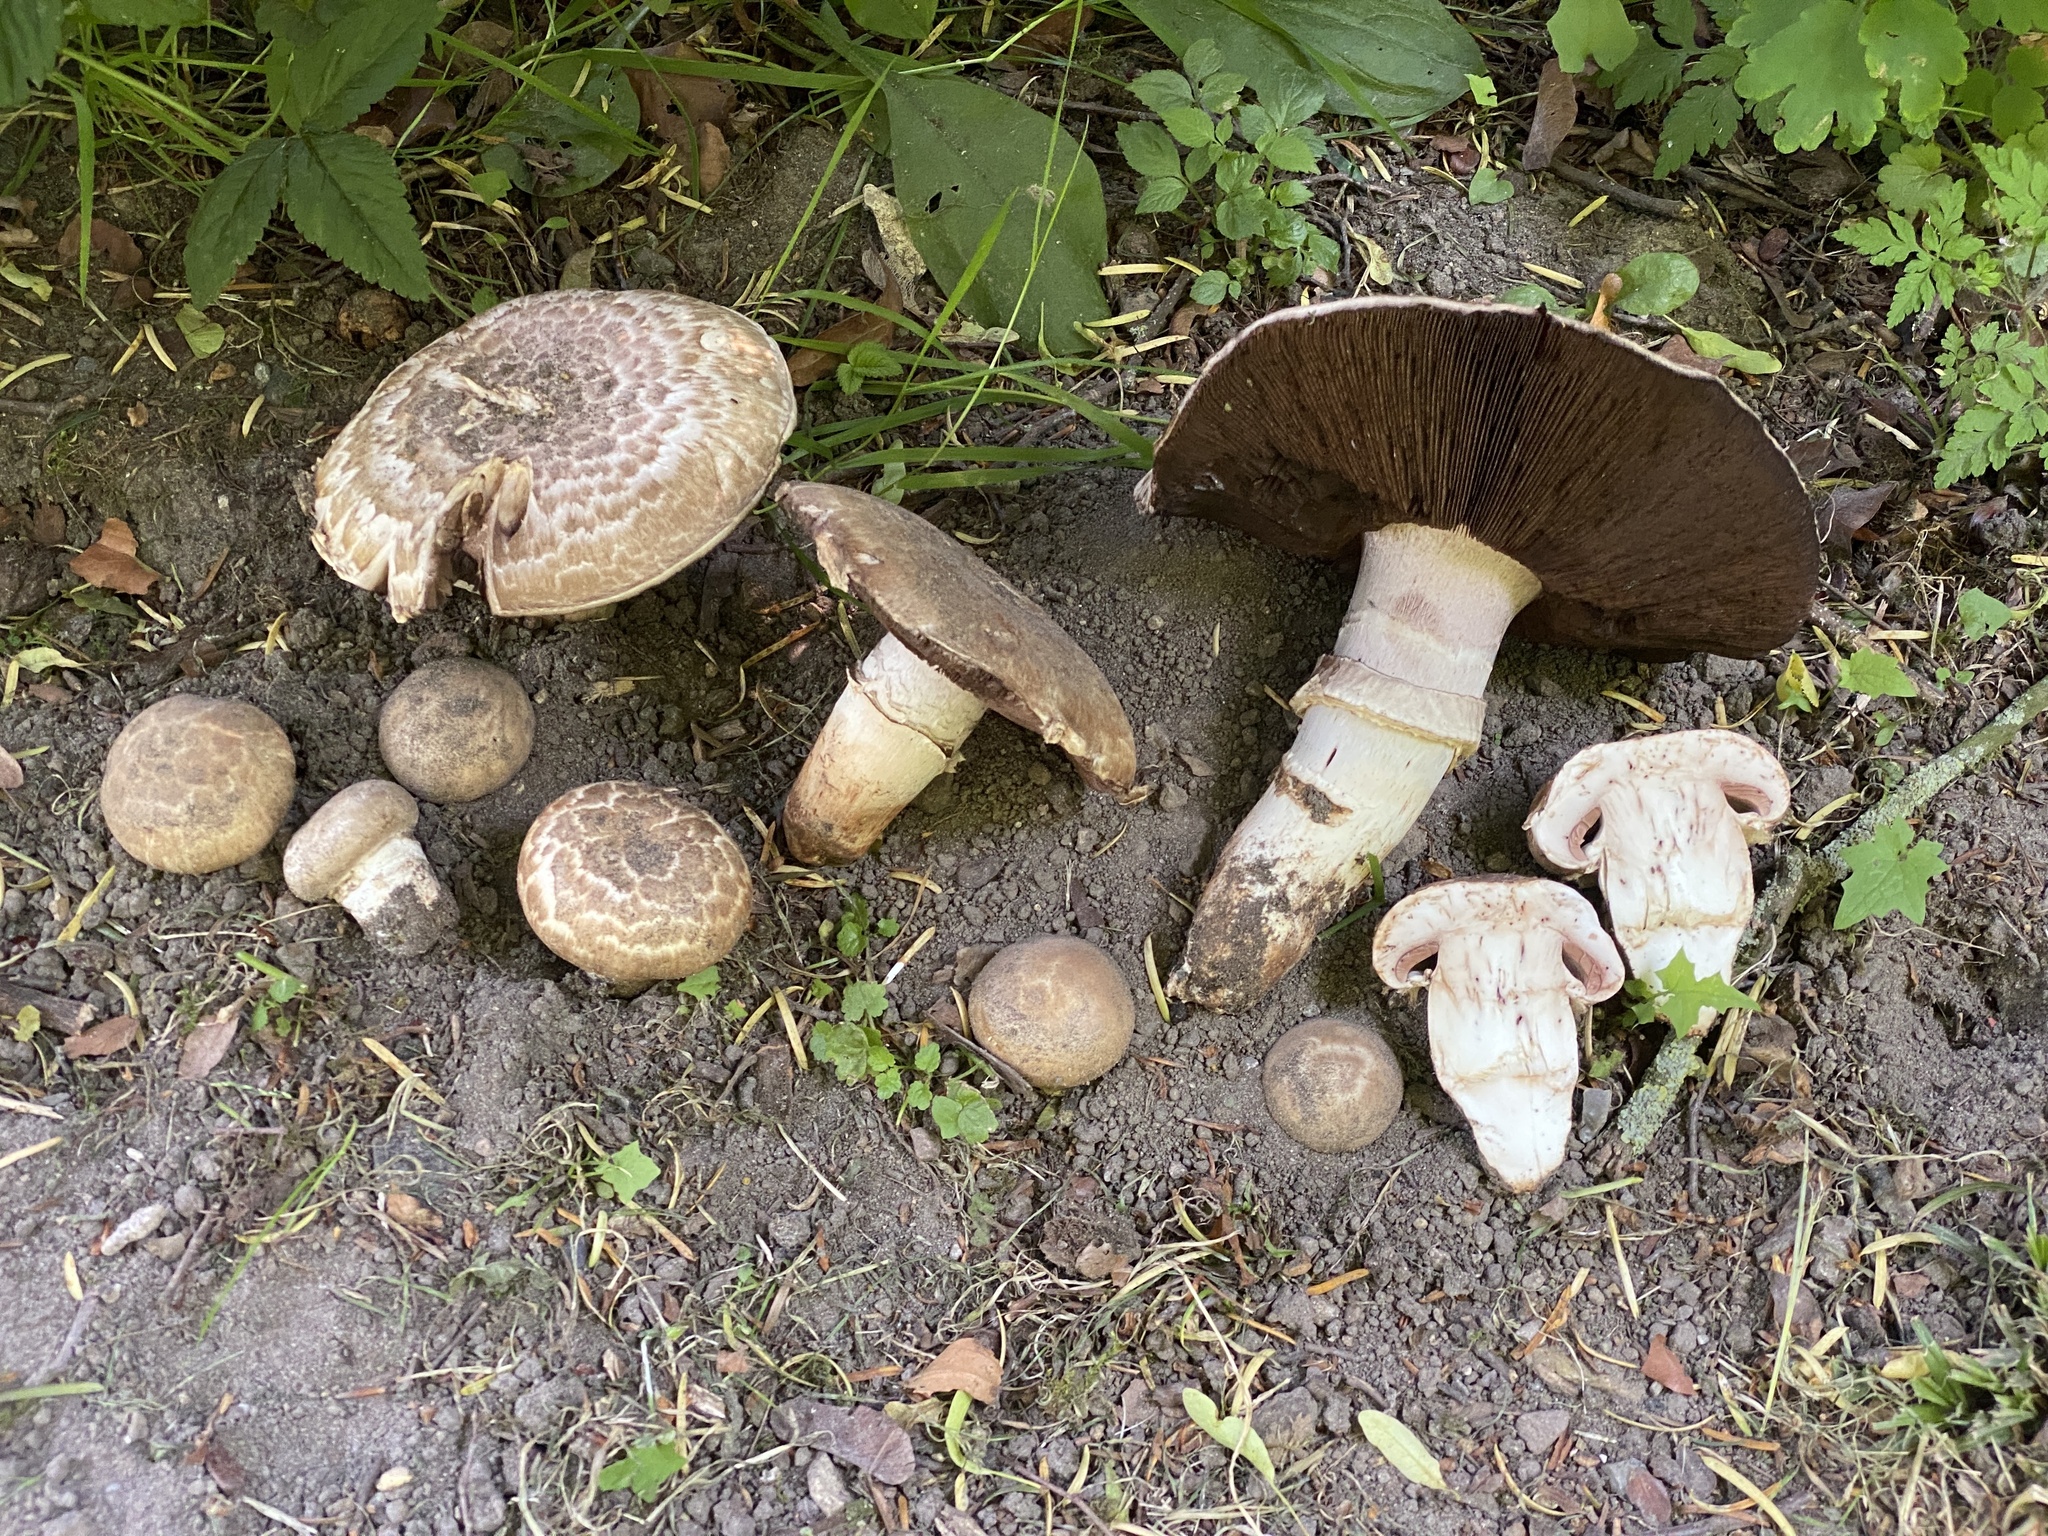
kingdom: Fungi
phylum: Basidiomycota
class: Agaricomycetes
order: Agaricales
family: Agaricaceae
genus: Agaricus
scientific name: Agaricus subperonatus
